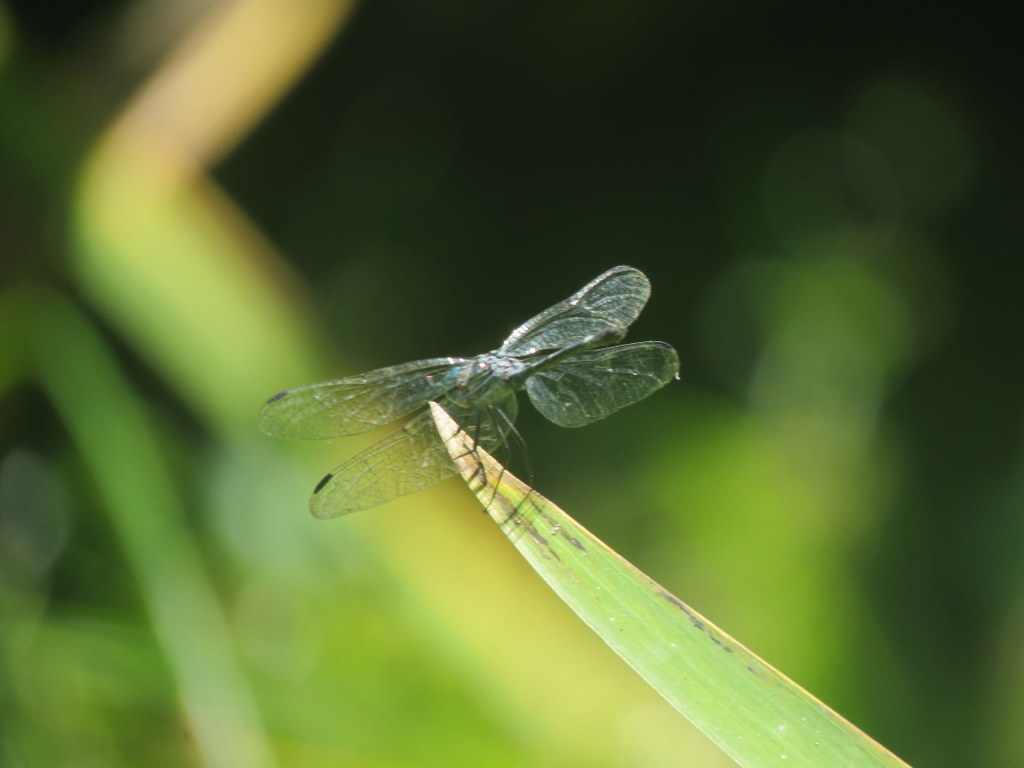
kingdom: Animalia
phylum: Arthropoda
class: Insecta
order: Odonata
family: Libellulidae
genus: Micrathyria
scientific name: Micrathyria hypodidyma
